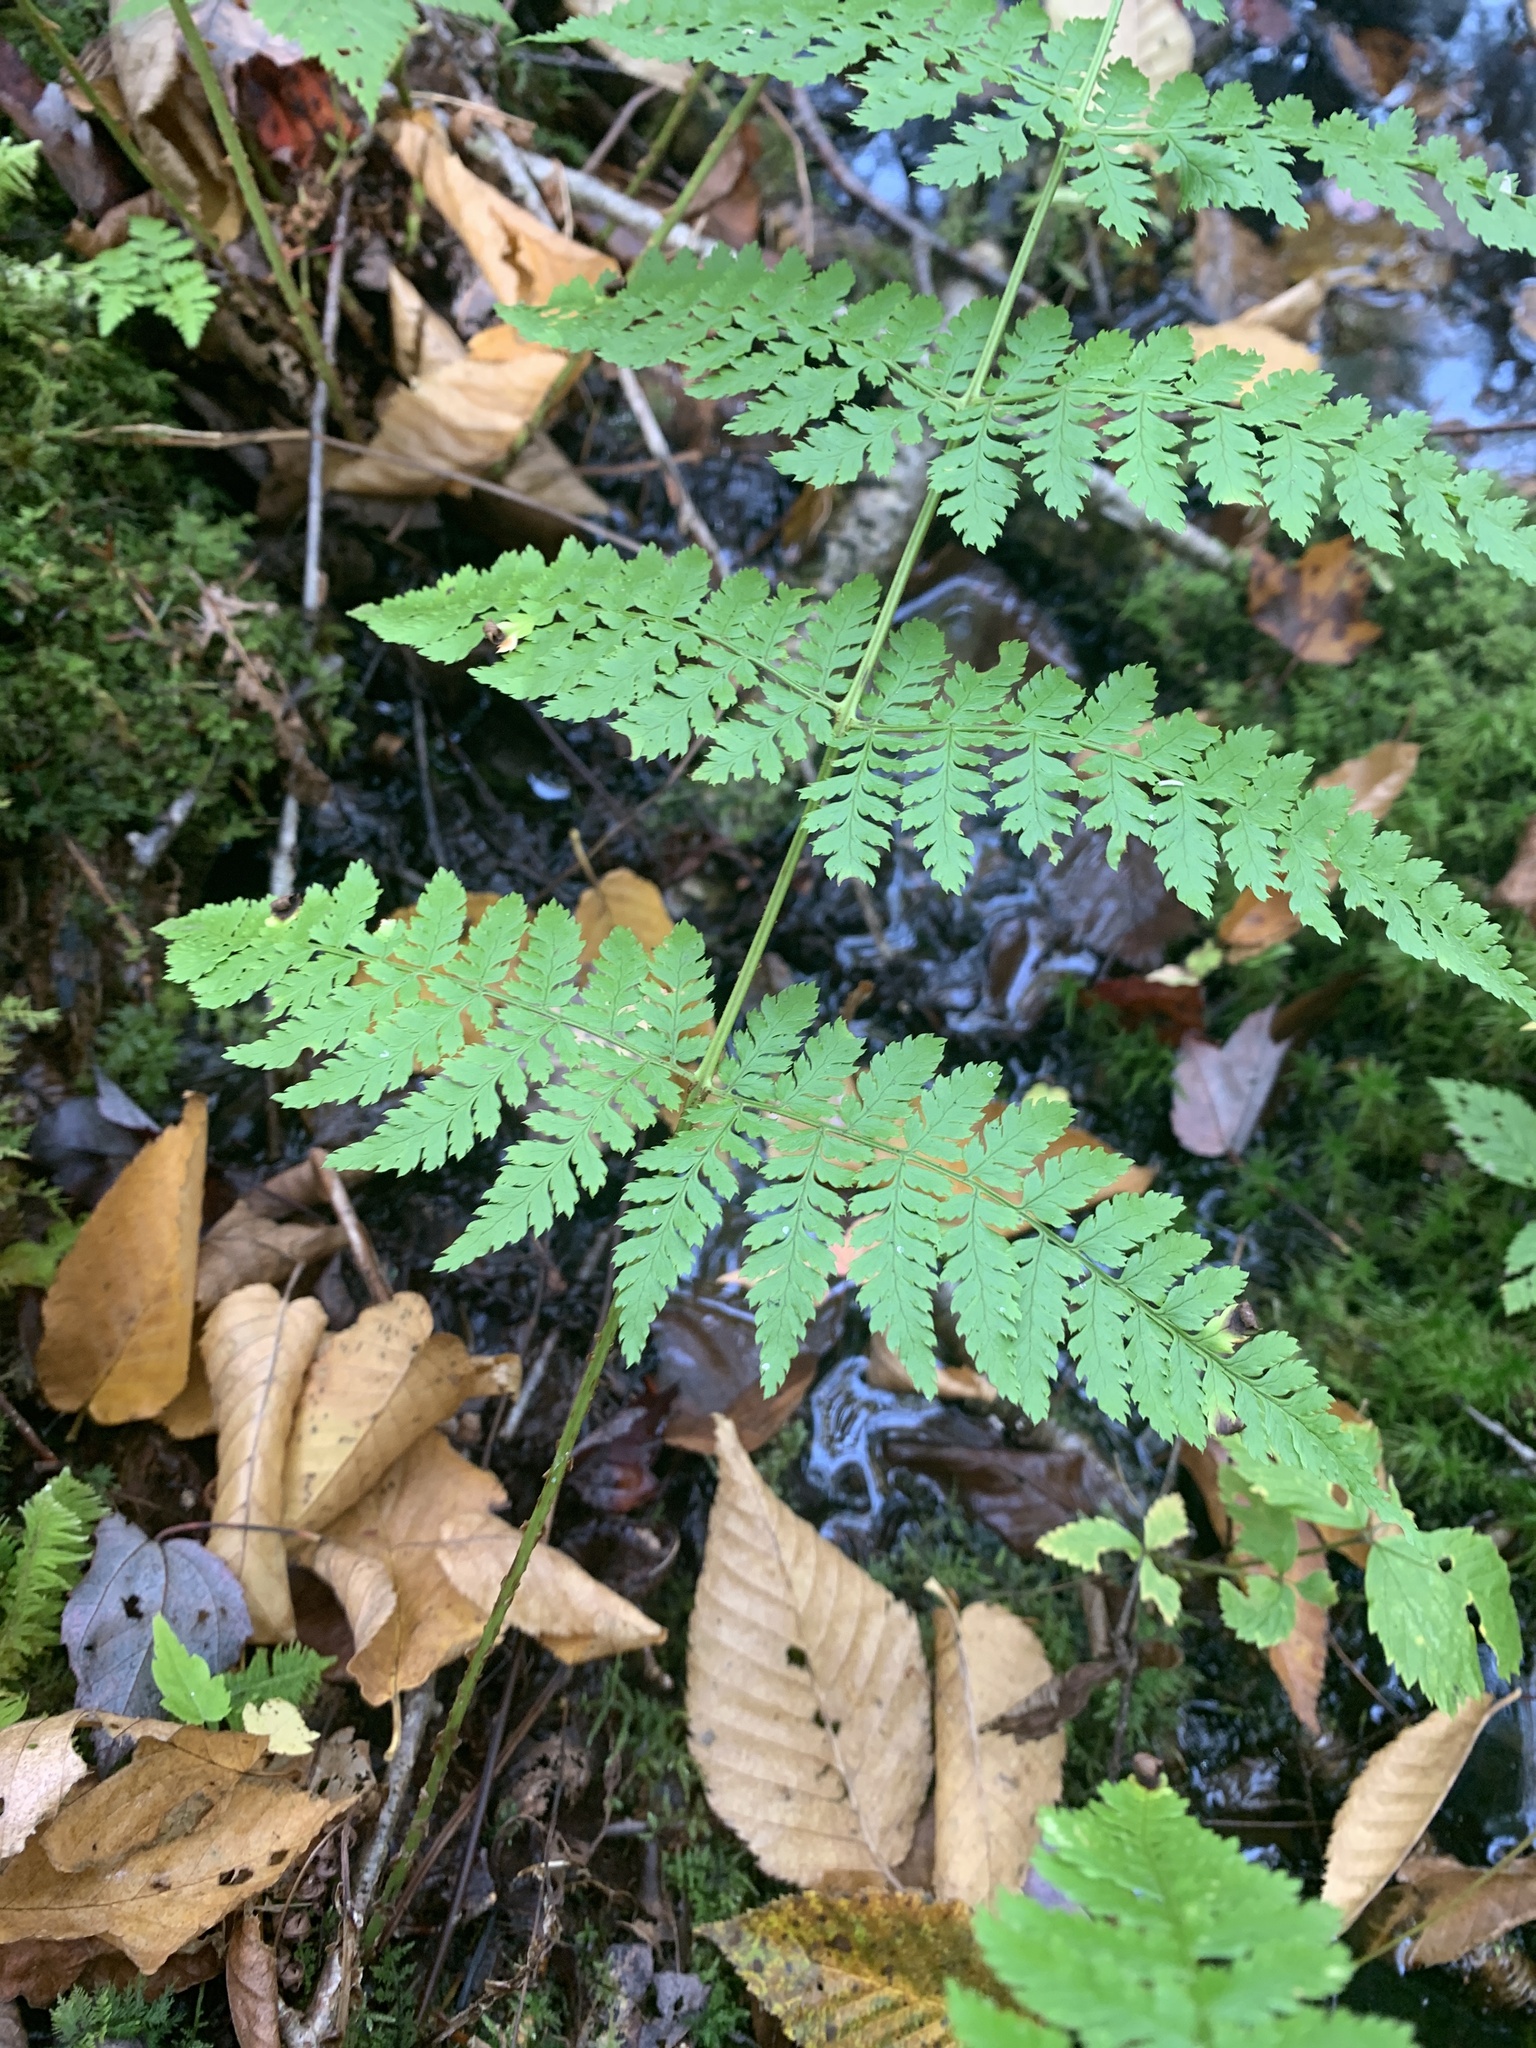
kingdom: Plantae
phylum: Tracheophyta
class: Polypodiopsida
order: Polypodiales
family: Dryopteridaceae
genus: Dryopteris
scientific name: Dryopteris intermedia
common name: Evergreen wood fern
